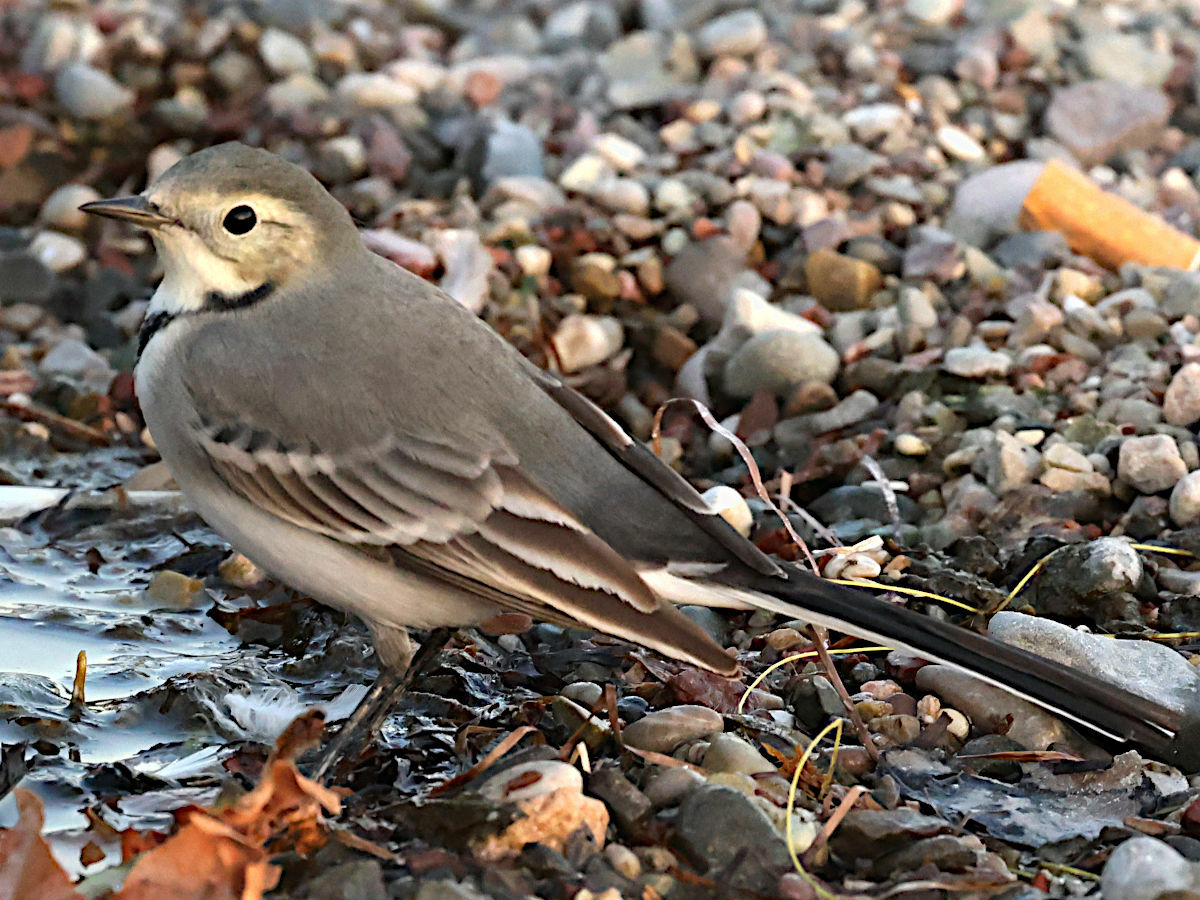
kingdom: Animalia
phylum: Chordata
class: Aves
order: Passeriformes
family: Motacillidae
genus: Motacilla
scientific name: Motacilla alba
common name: White wagtail
